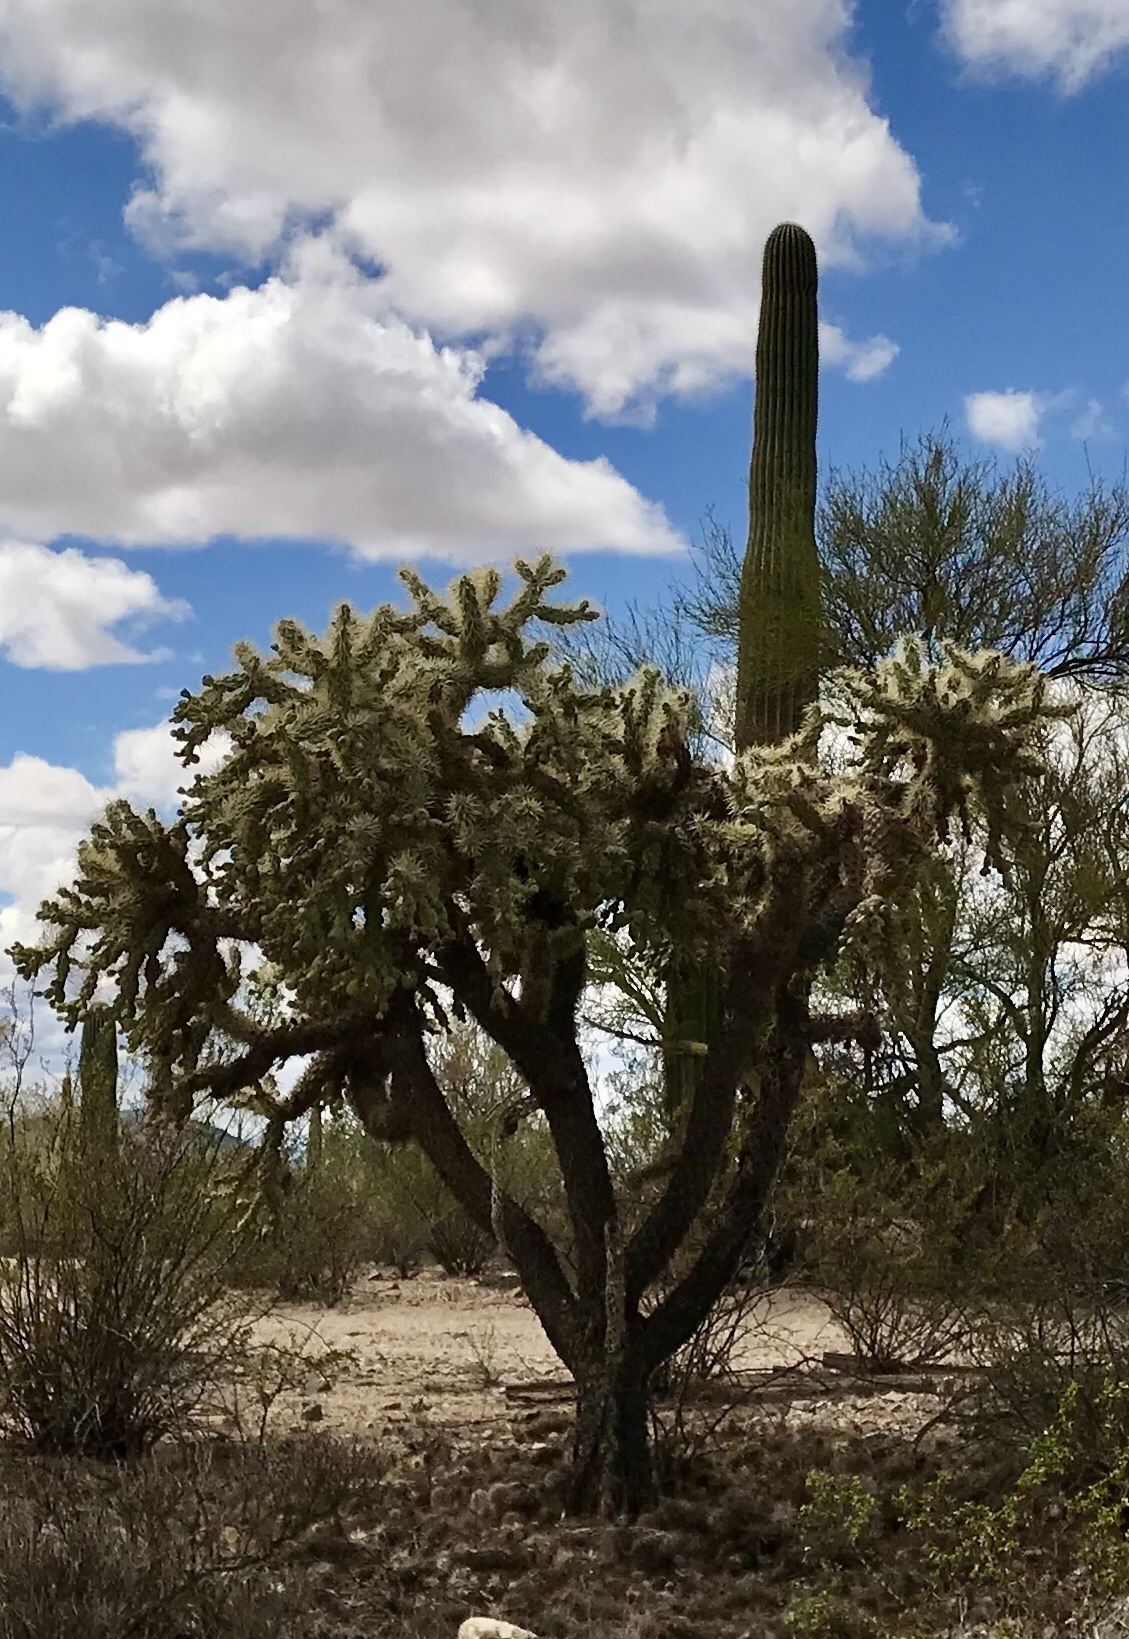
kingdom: Plantae
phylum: Tracheophyta
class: Magnoliopsida
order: Caryophyllales
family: Cactaceae
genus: Cylindropuntia
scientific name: Cylindropuntia fulgida
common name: Jumping cholla
